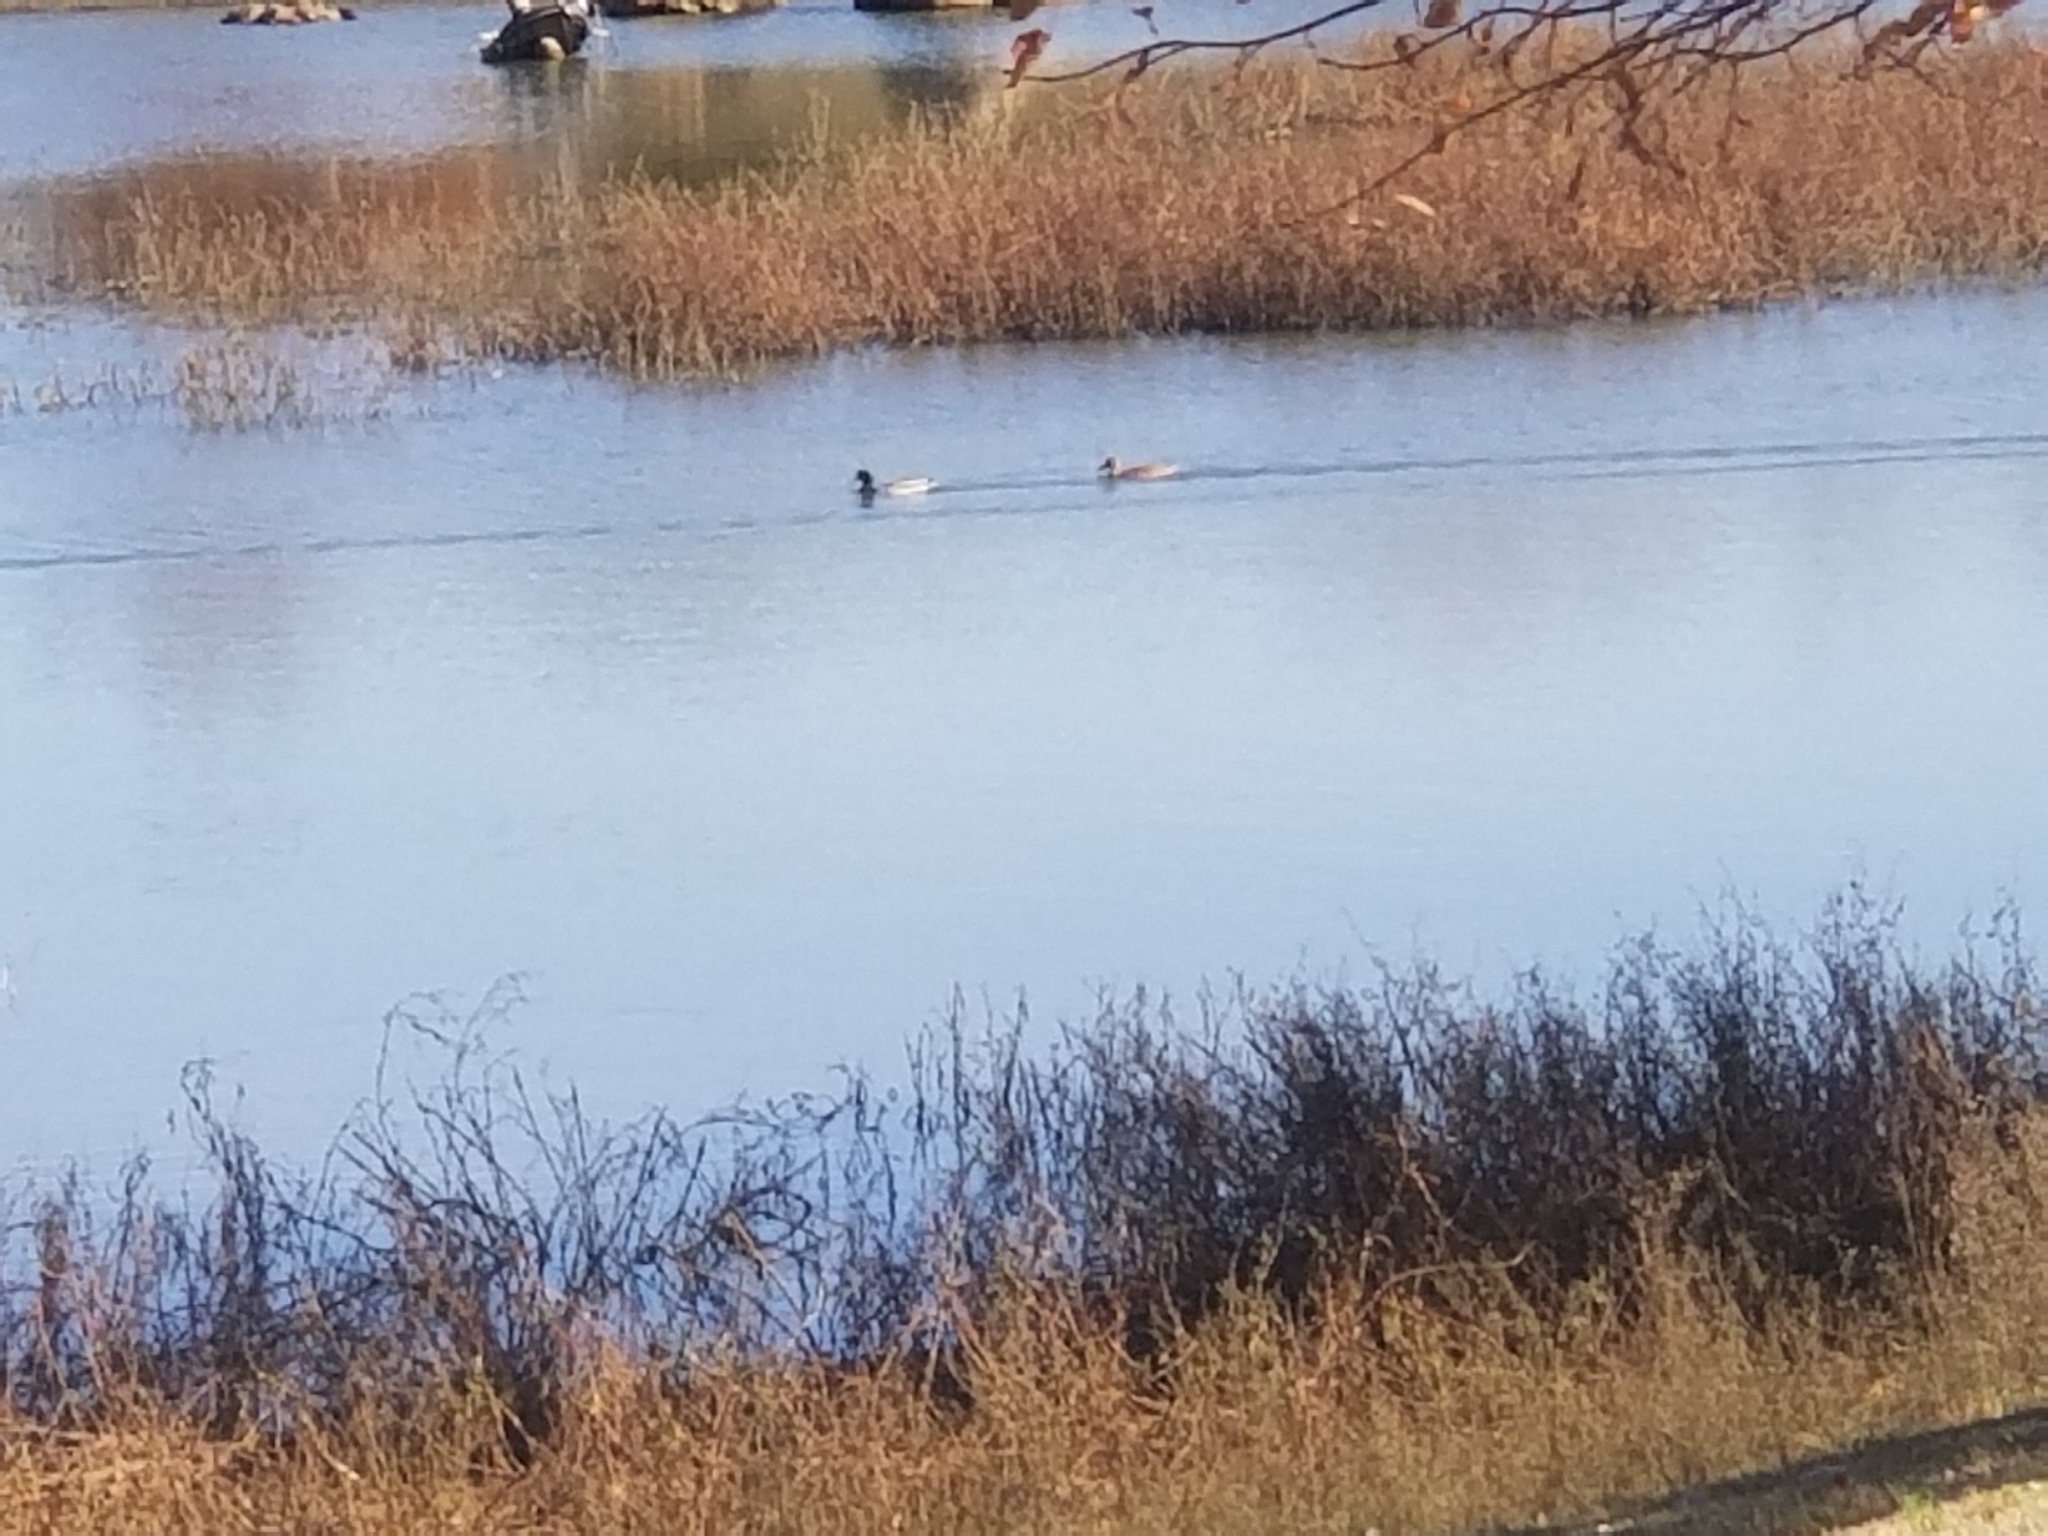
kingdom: Animalia
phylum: Chordata
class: Aves
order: Anseriformes
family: Anatidae
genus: Anas
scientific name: Anas platyrhynchos
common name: Mallard
